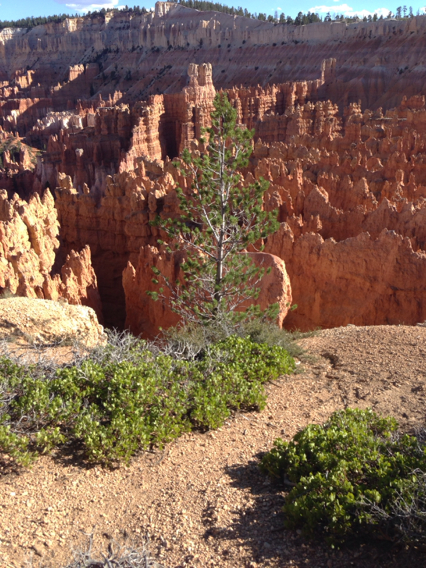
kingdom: Plantae
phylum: Tracheophyta
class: Pinopsida
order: Pinales
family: Pinaceae
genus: Pinus
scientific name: Pinus flexilis
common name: Limber pine
